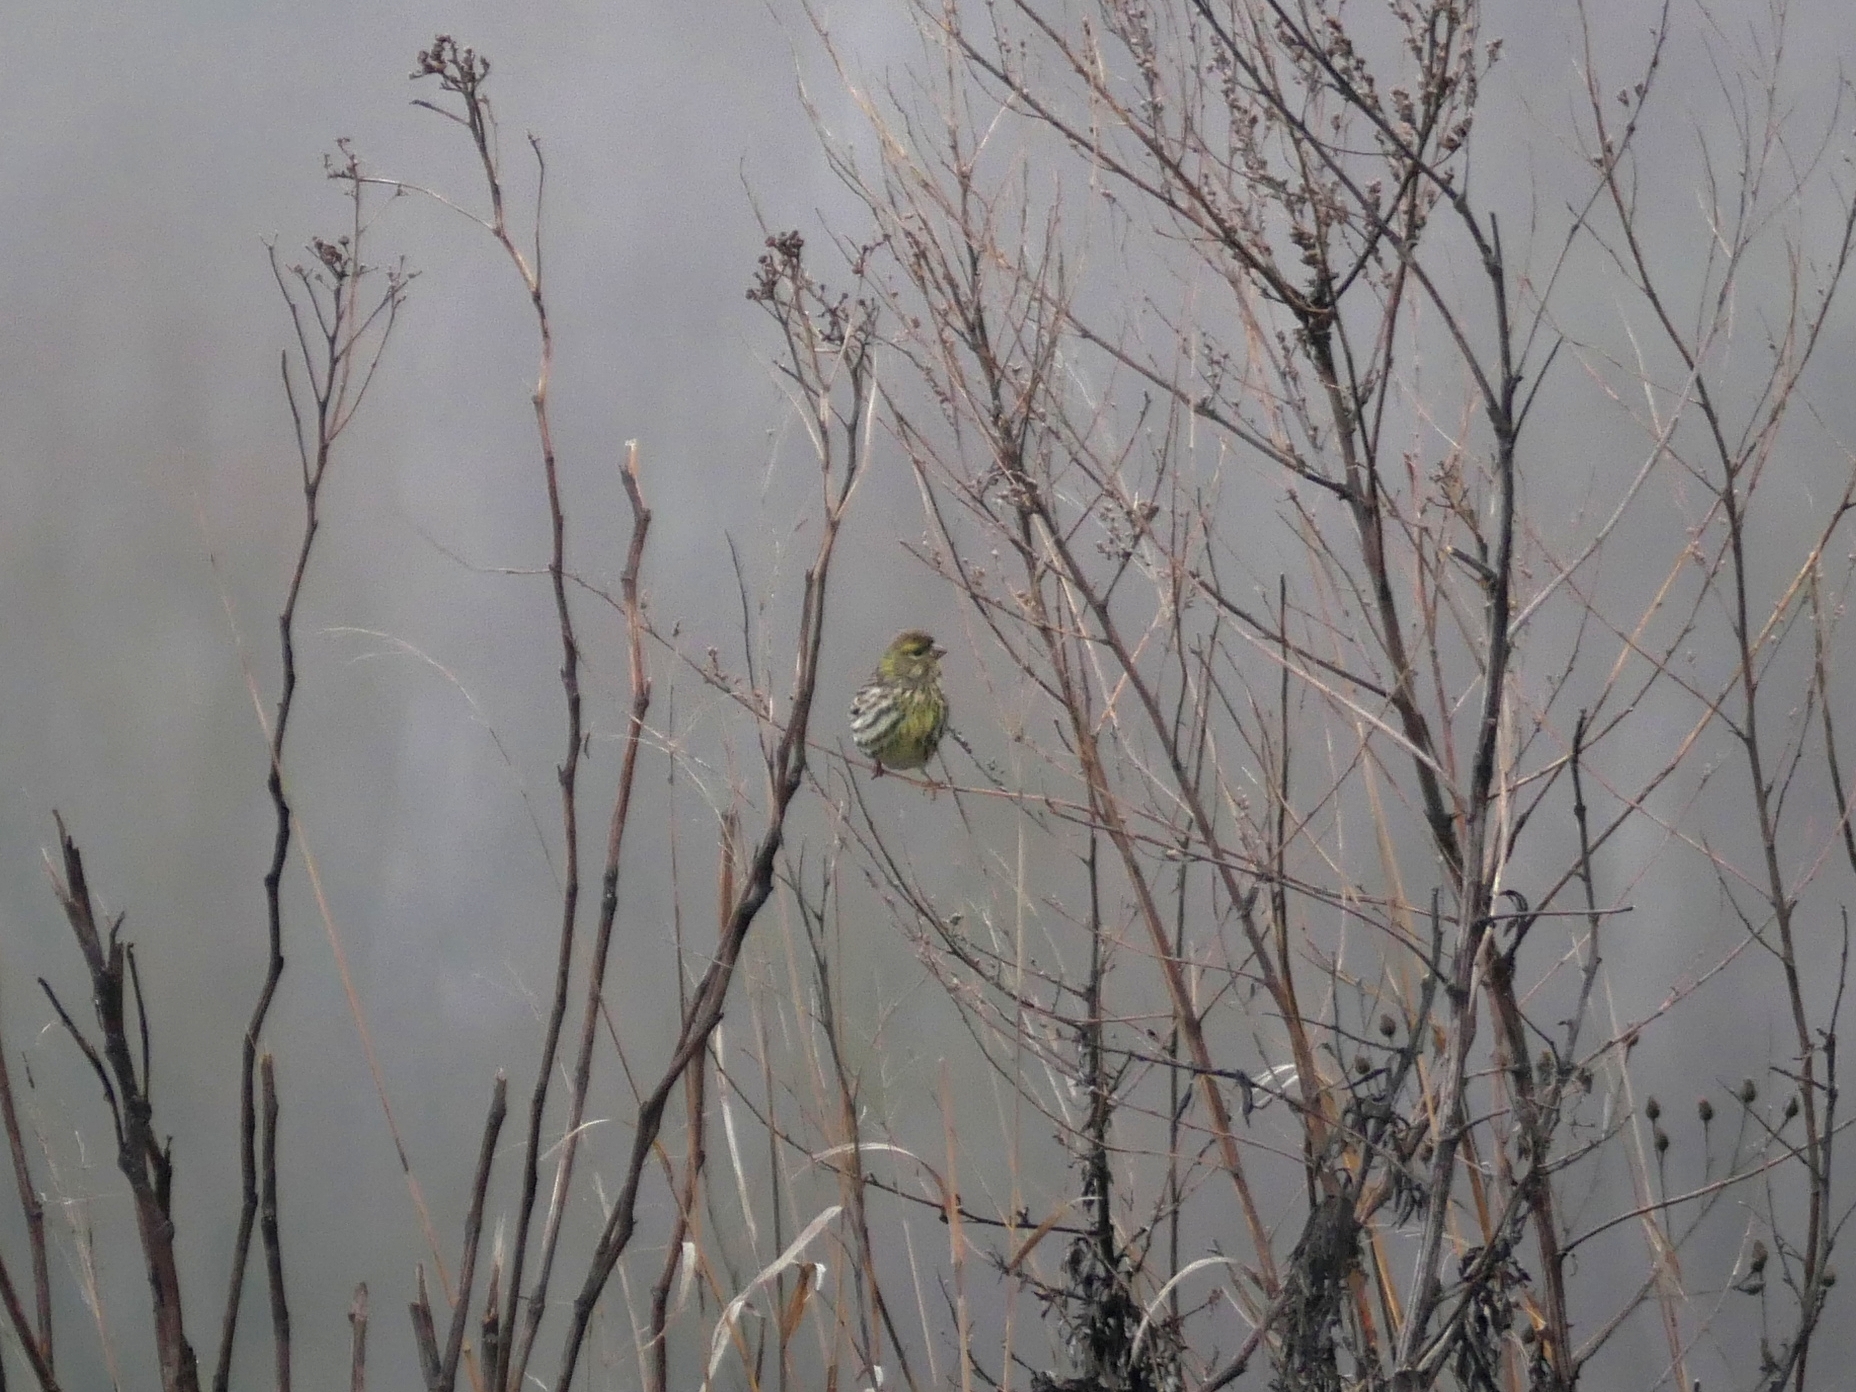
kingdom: Animalia
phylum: Chordata
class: Aves
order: Passeriformes
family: Fringillidae
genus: Spinus
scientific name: Spinus spinus
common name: Eurasian siskin
